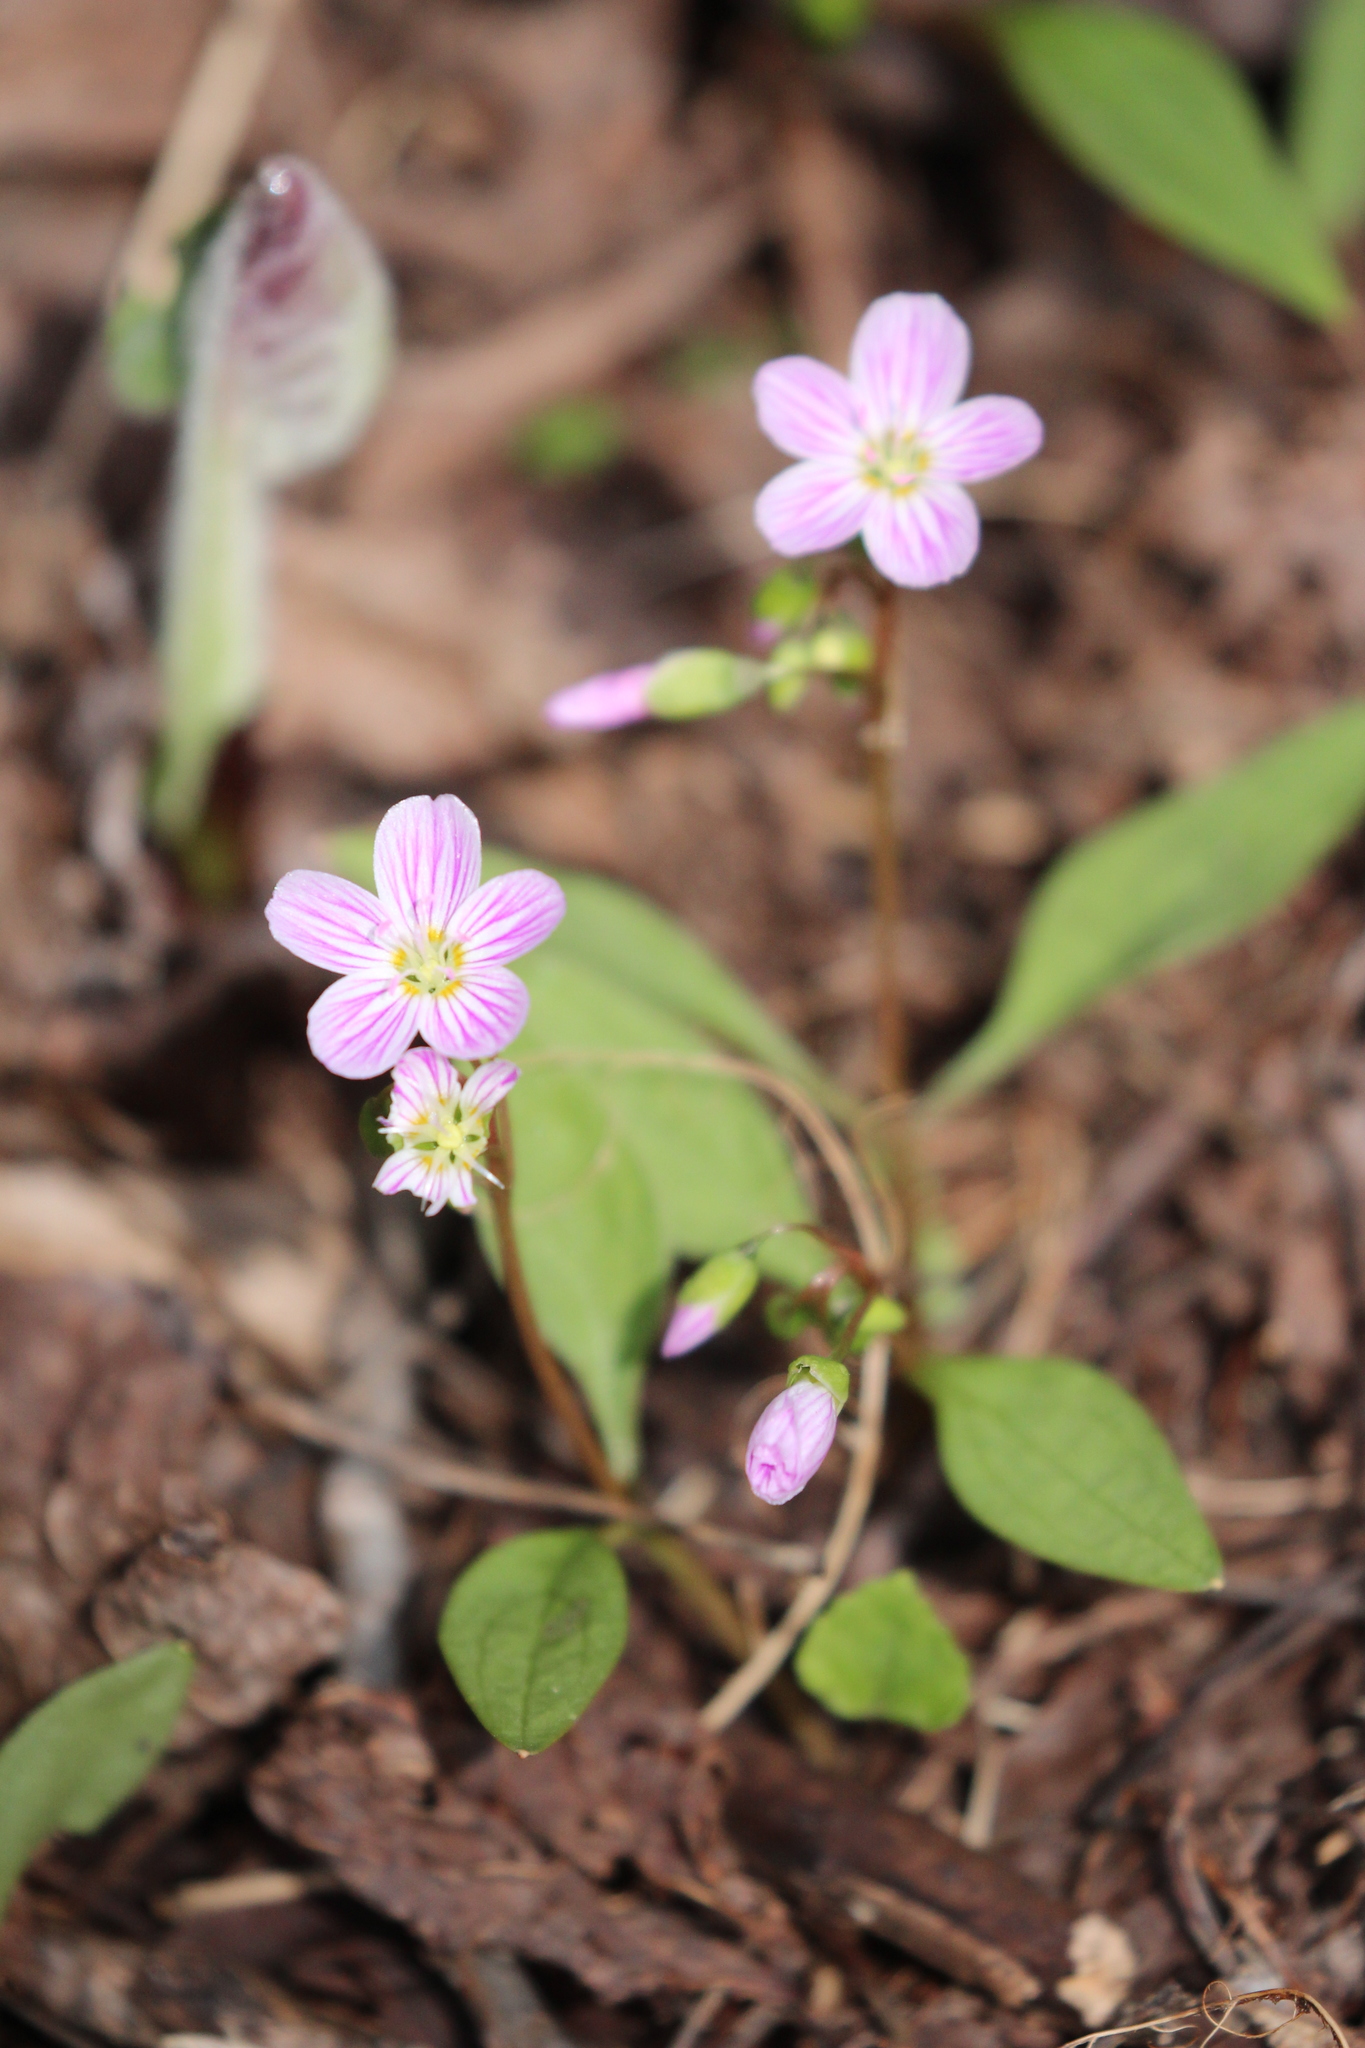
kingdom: Plantae
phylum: Tracheophyta
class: Magnoliopsida
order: Caryophyllales
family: Montiaceae
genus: Claytonia
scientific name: Claytonia caroliniana
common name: Carolina spring beauty
